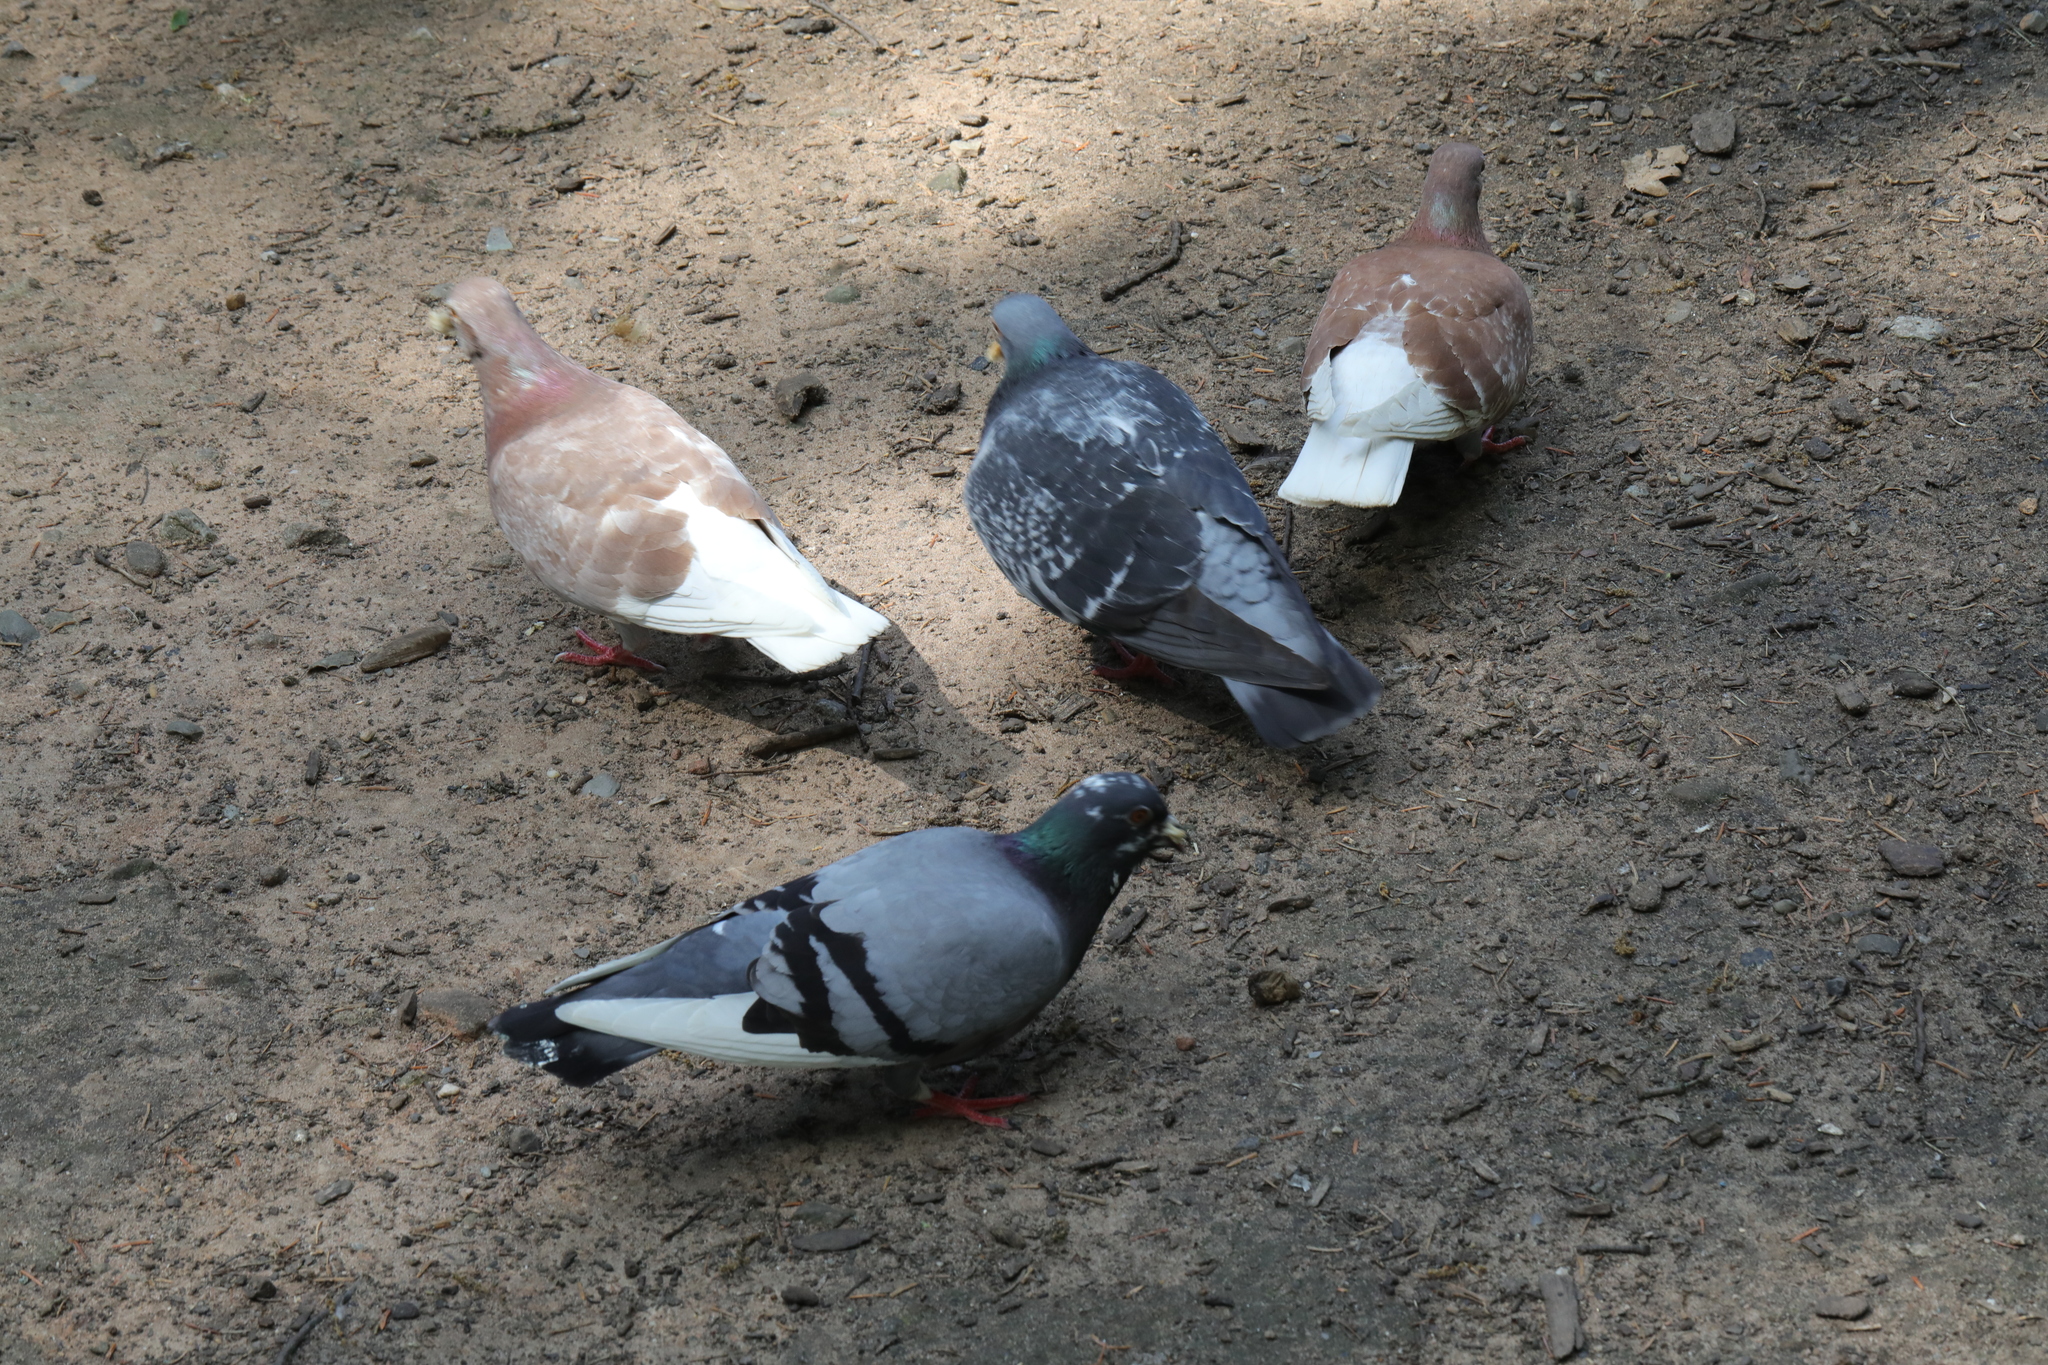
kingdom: Animalia
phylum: Chordata
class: Aves
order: Columbiformes
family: Columbidae
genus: Columba
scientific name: Columba livia
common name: Rock pigeon
